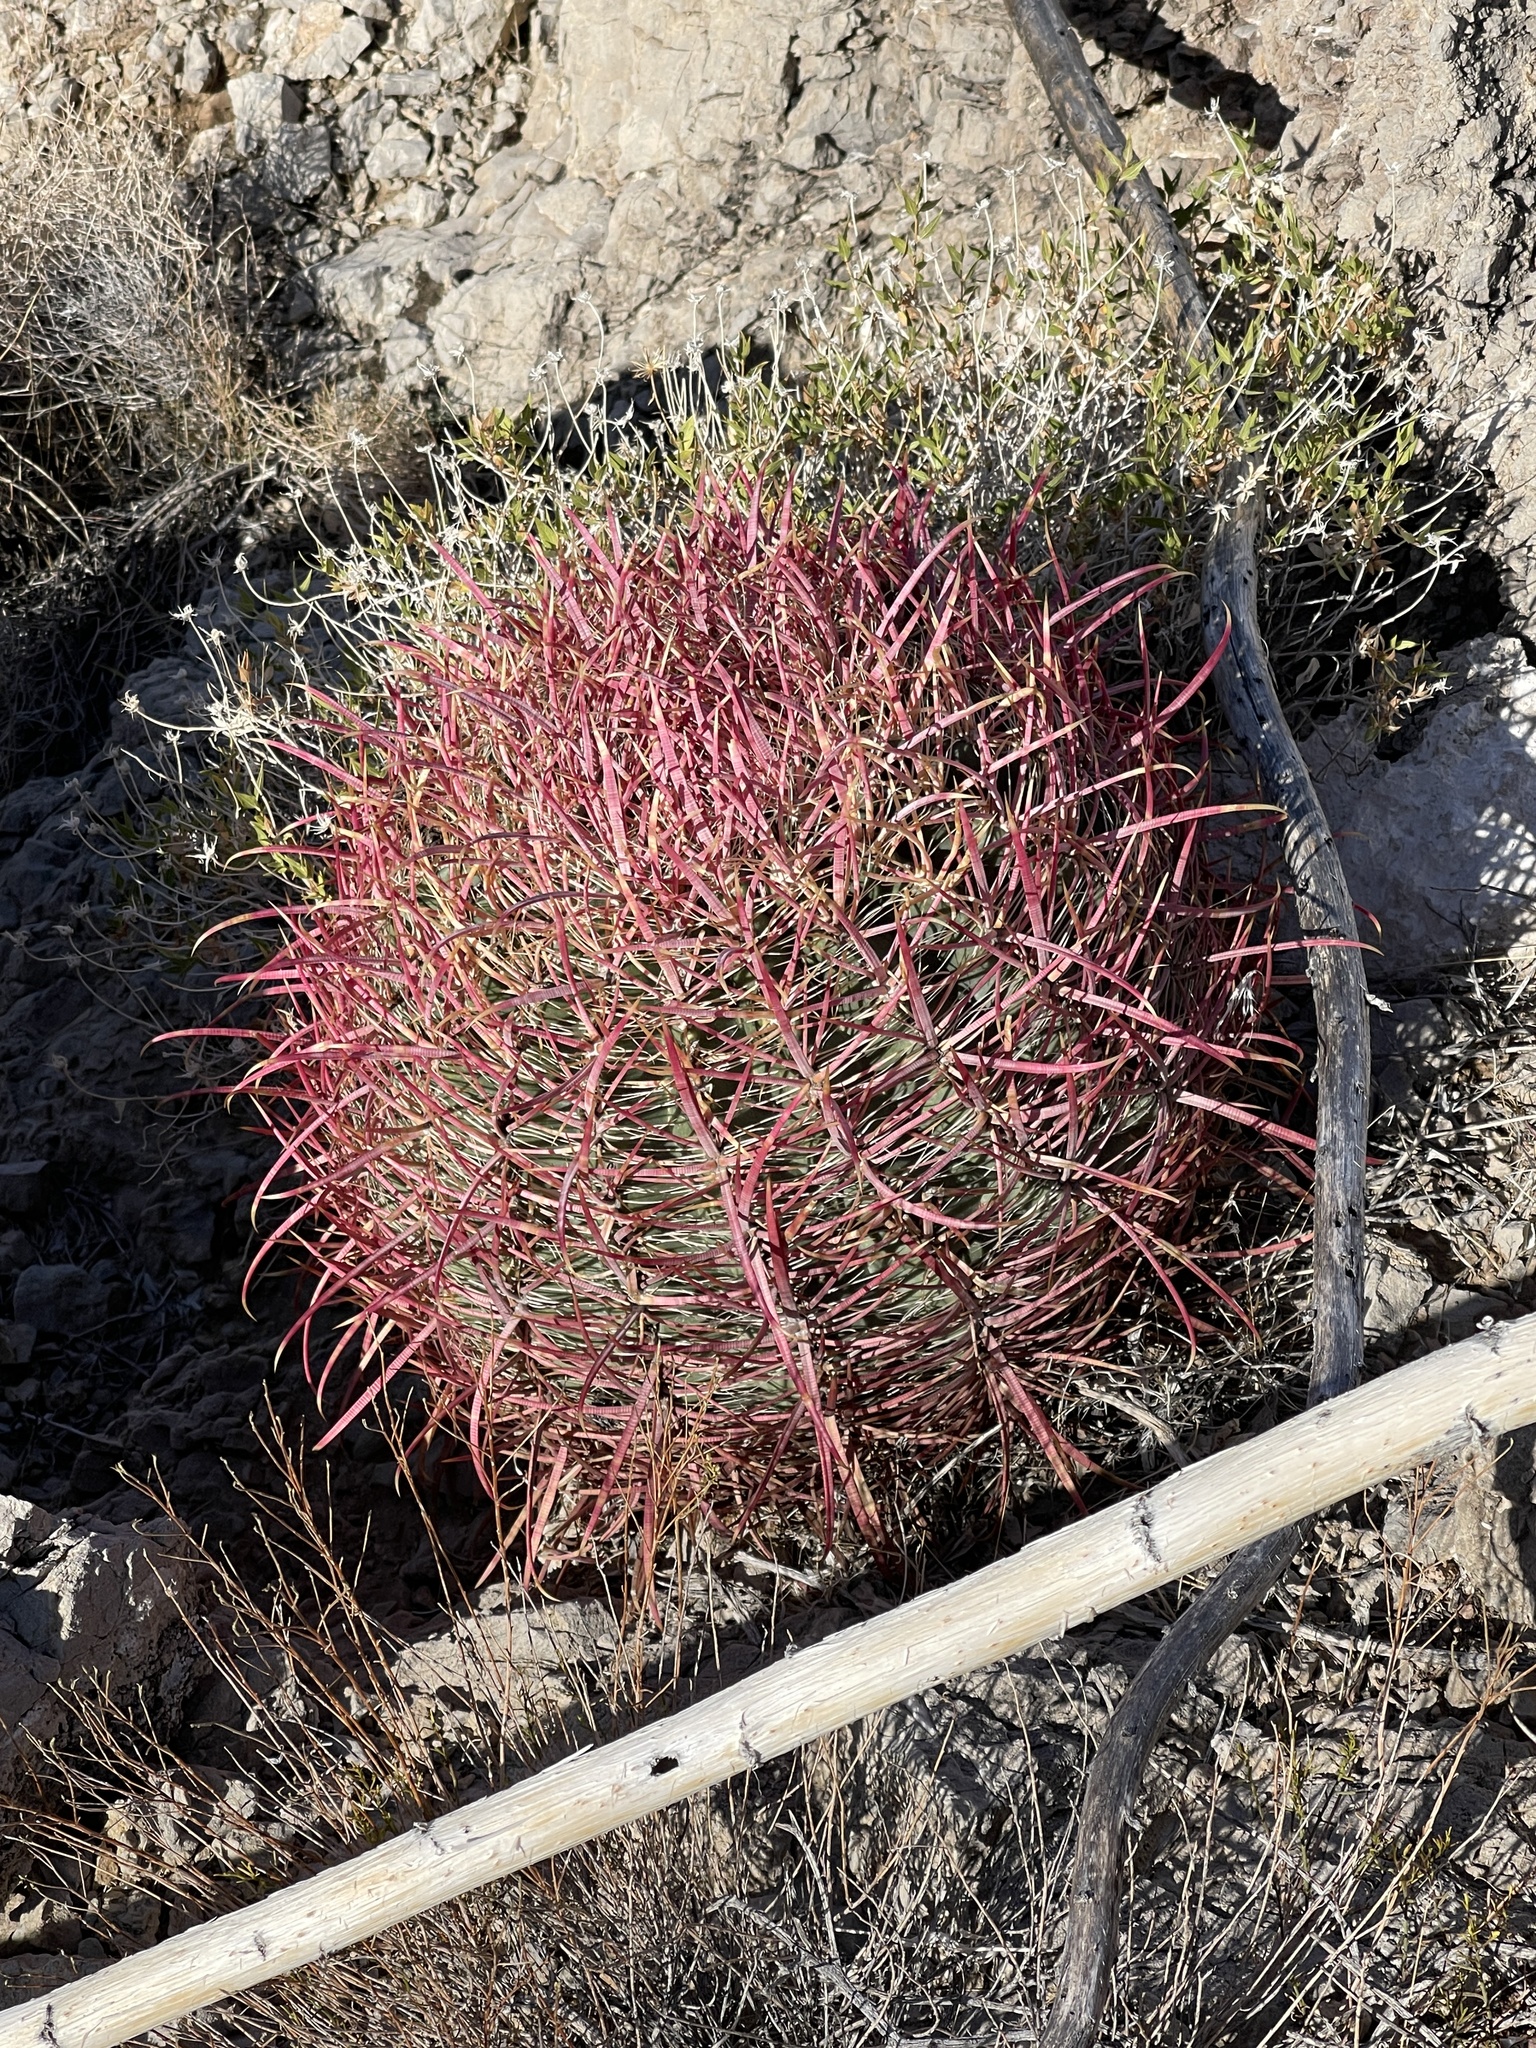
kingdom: Plantae
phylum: Tracheophyta
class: Magnoliopsida
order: Caryophyllales
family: Cactaceae
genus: Ferocactus
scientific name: Ferocactus cylindraceus
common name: California barrel cactus
